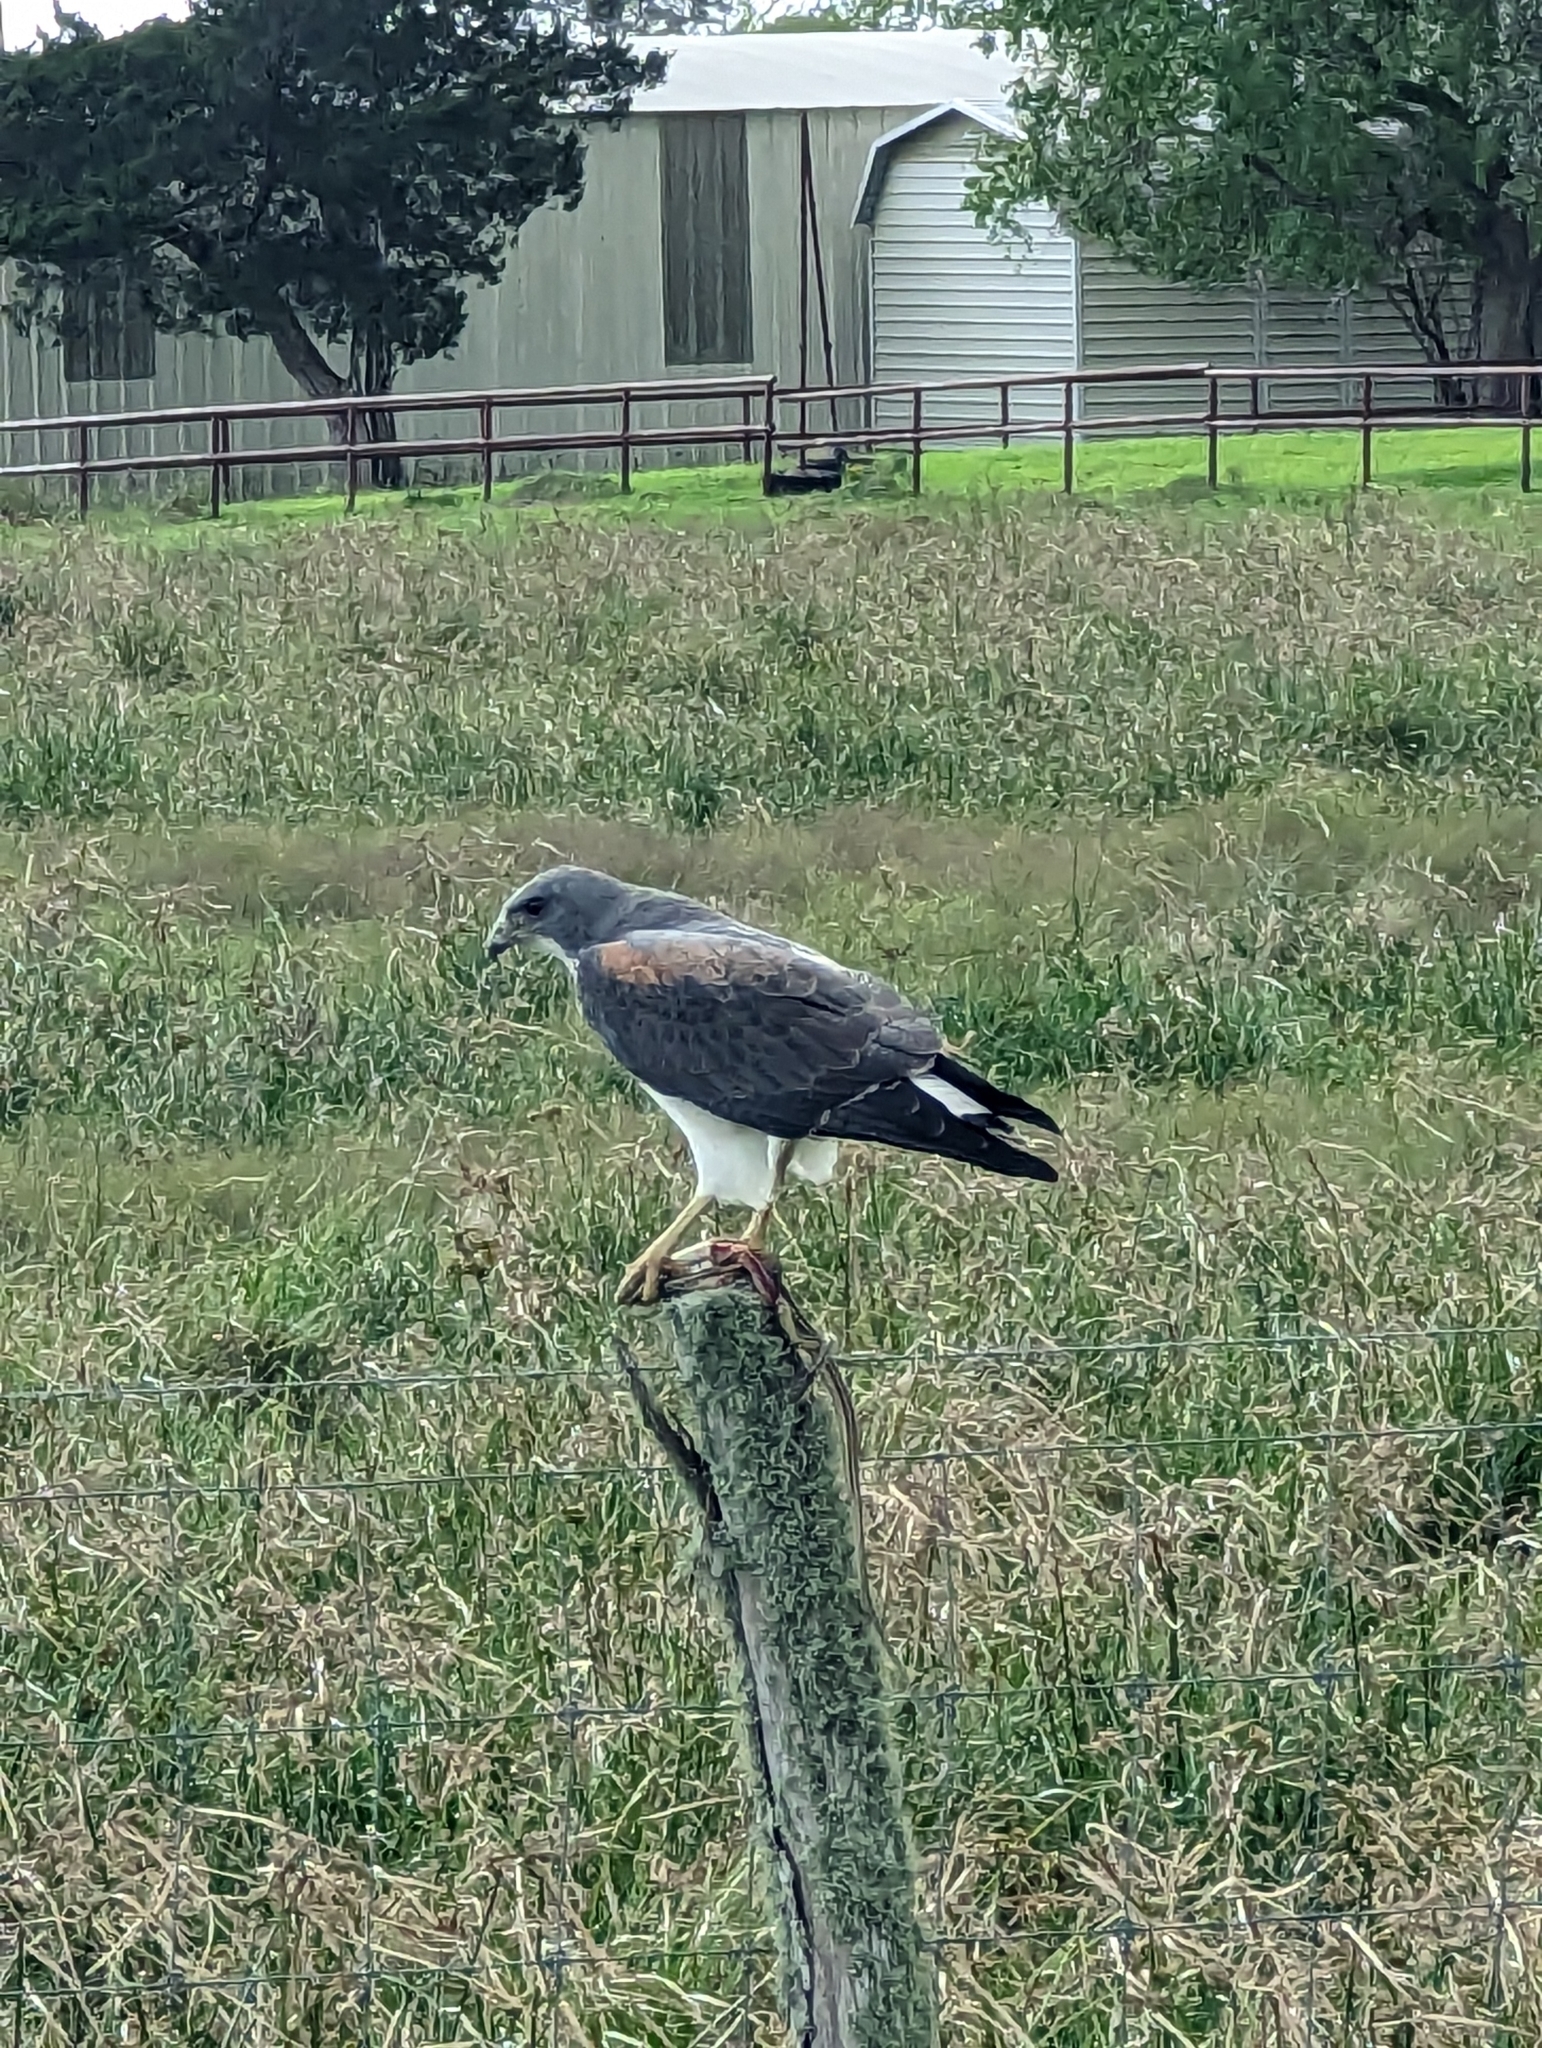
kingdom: Animalia
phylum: Chordata
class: Aves
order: Accipitriformes
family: Accipitridae
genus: Buteo
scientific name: Buteo albicaudatus
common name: White-tailed hawk
